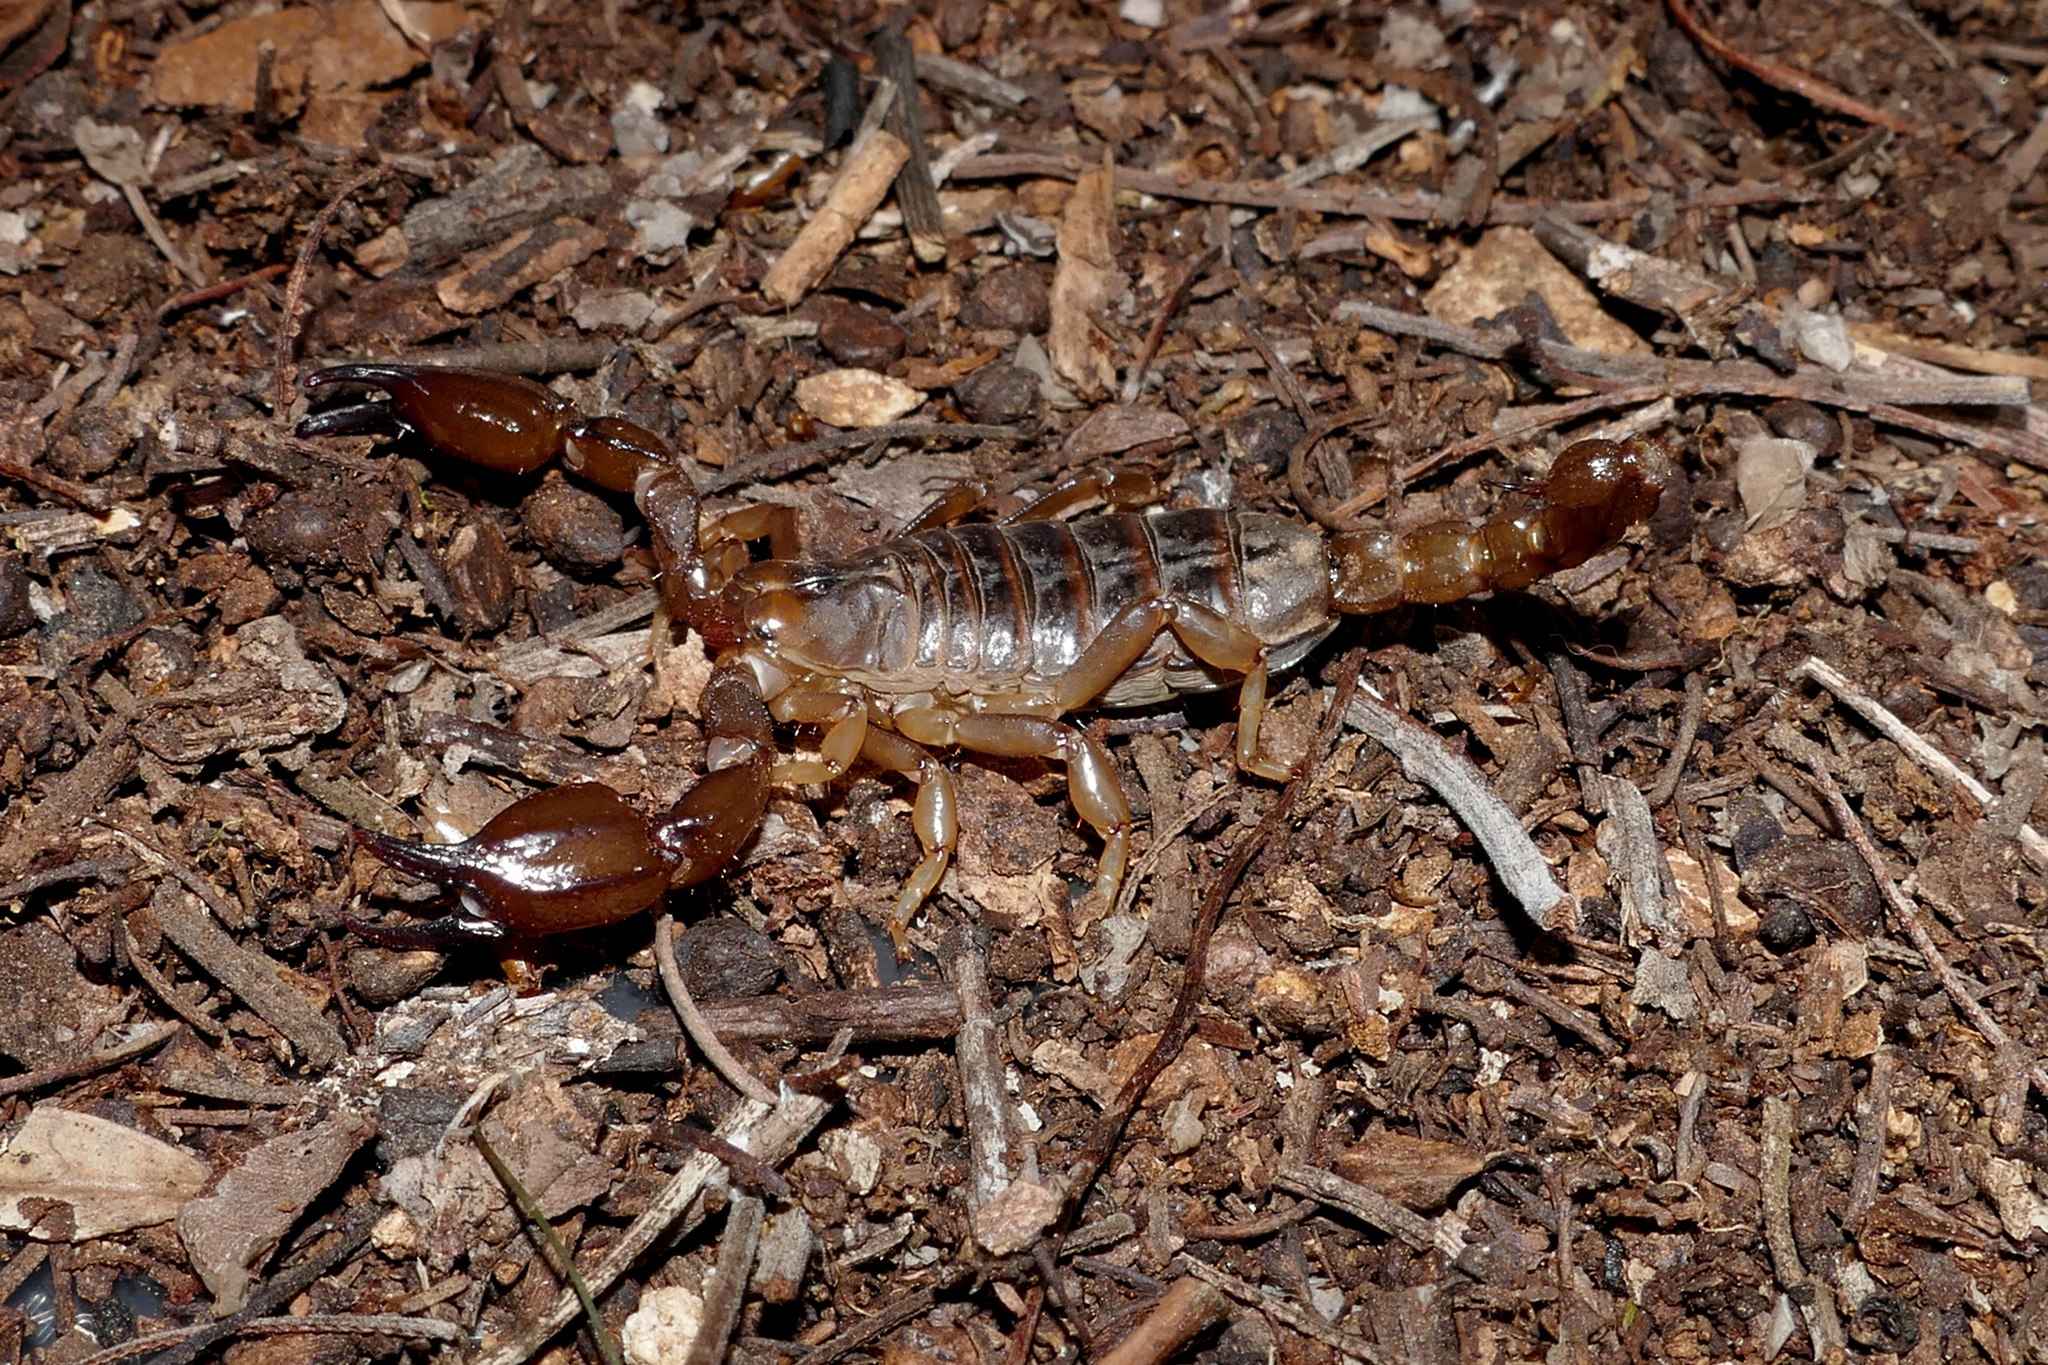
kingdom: Animalia
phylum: Arthropoda
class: Arachnida
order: Scorpiones
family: Scorpionidae
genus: Urodacus
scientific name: Urodacus manicatus
